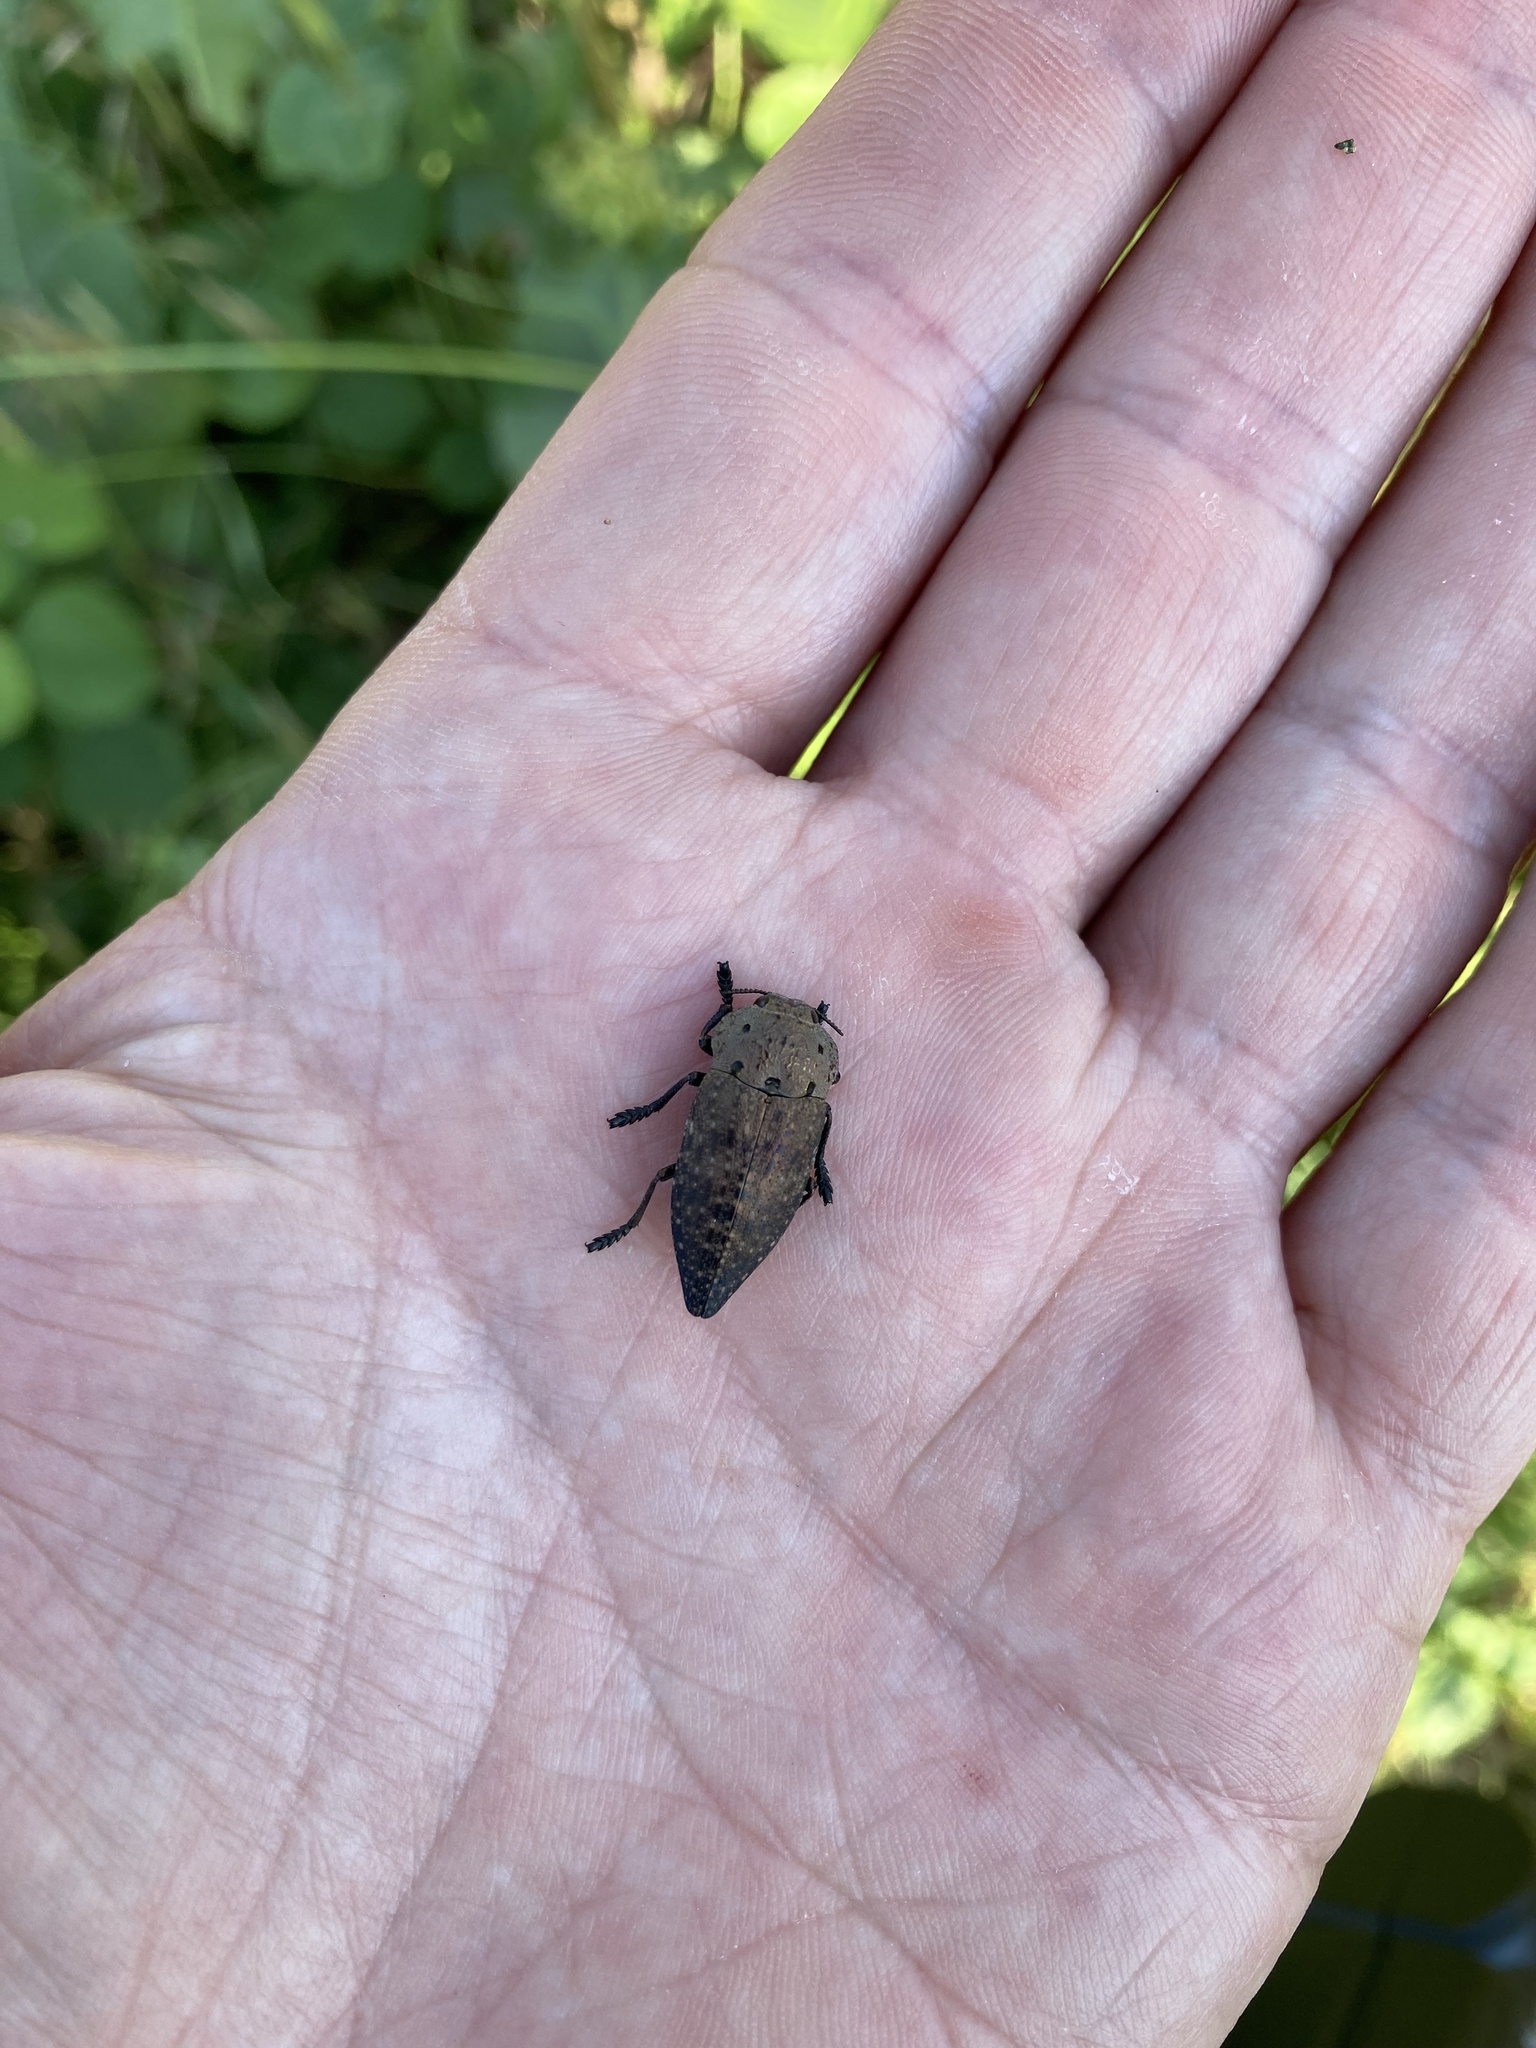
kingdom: Animalia
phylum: Arthropoda
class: Insecta
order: Coleoptera
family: Buprestidae
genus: Capnodis
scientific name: Capnodis tenebricosa
